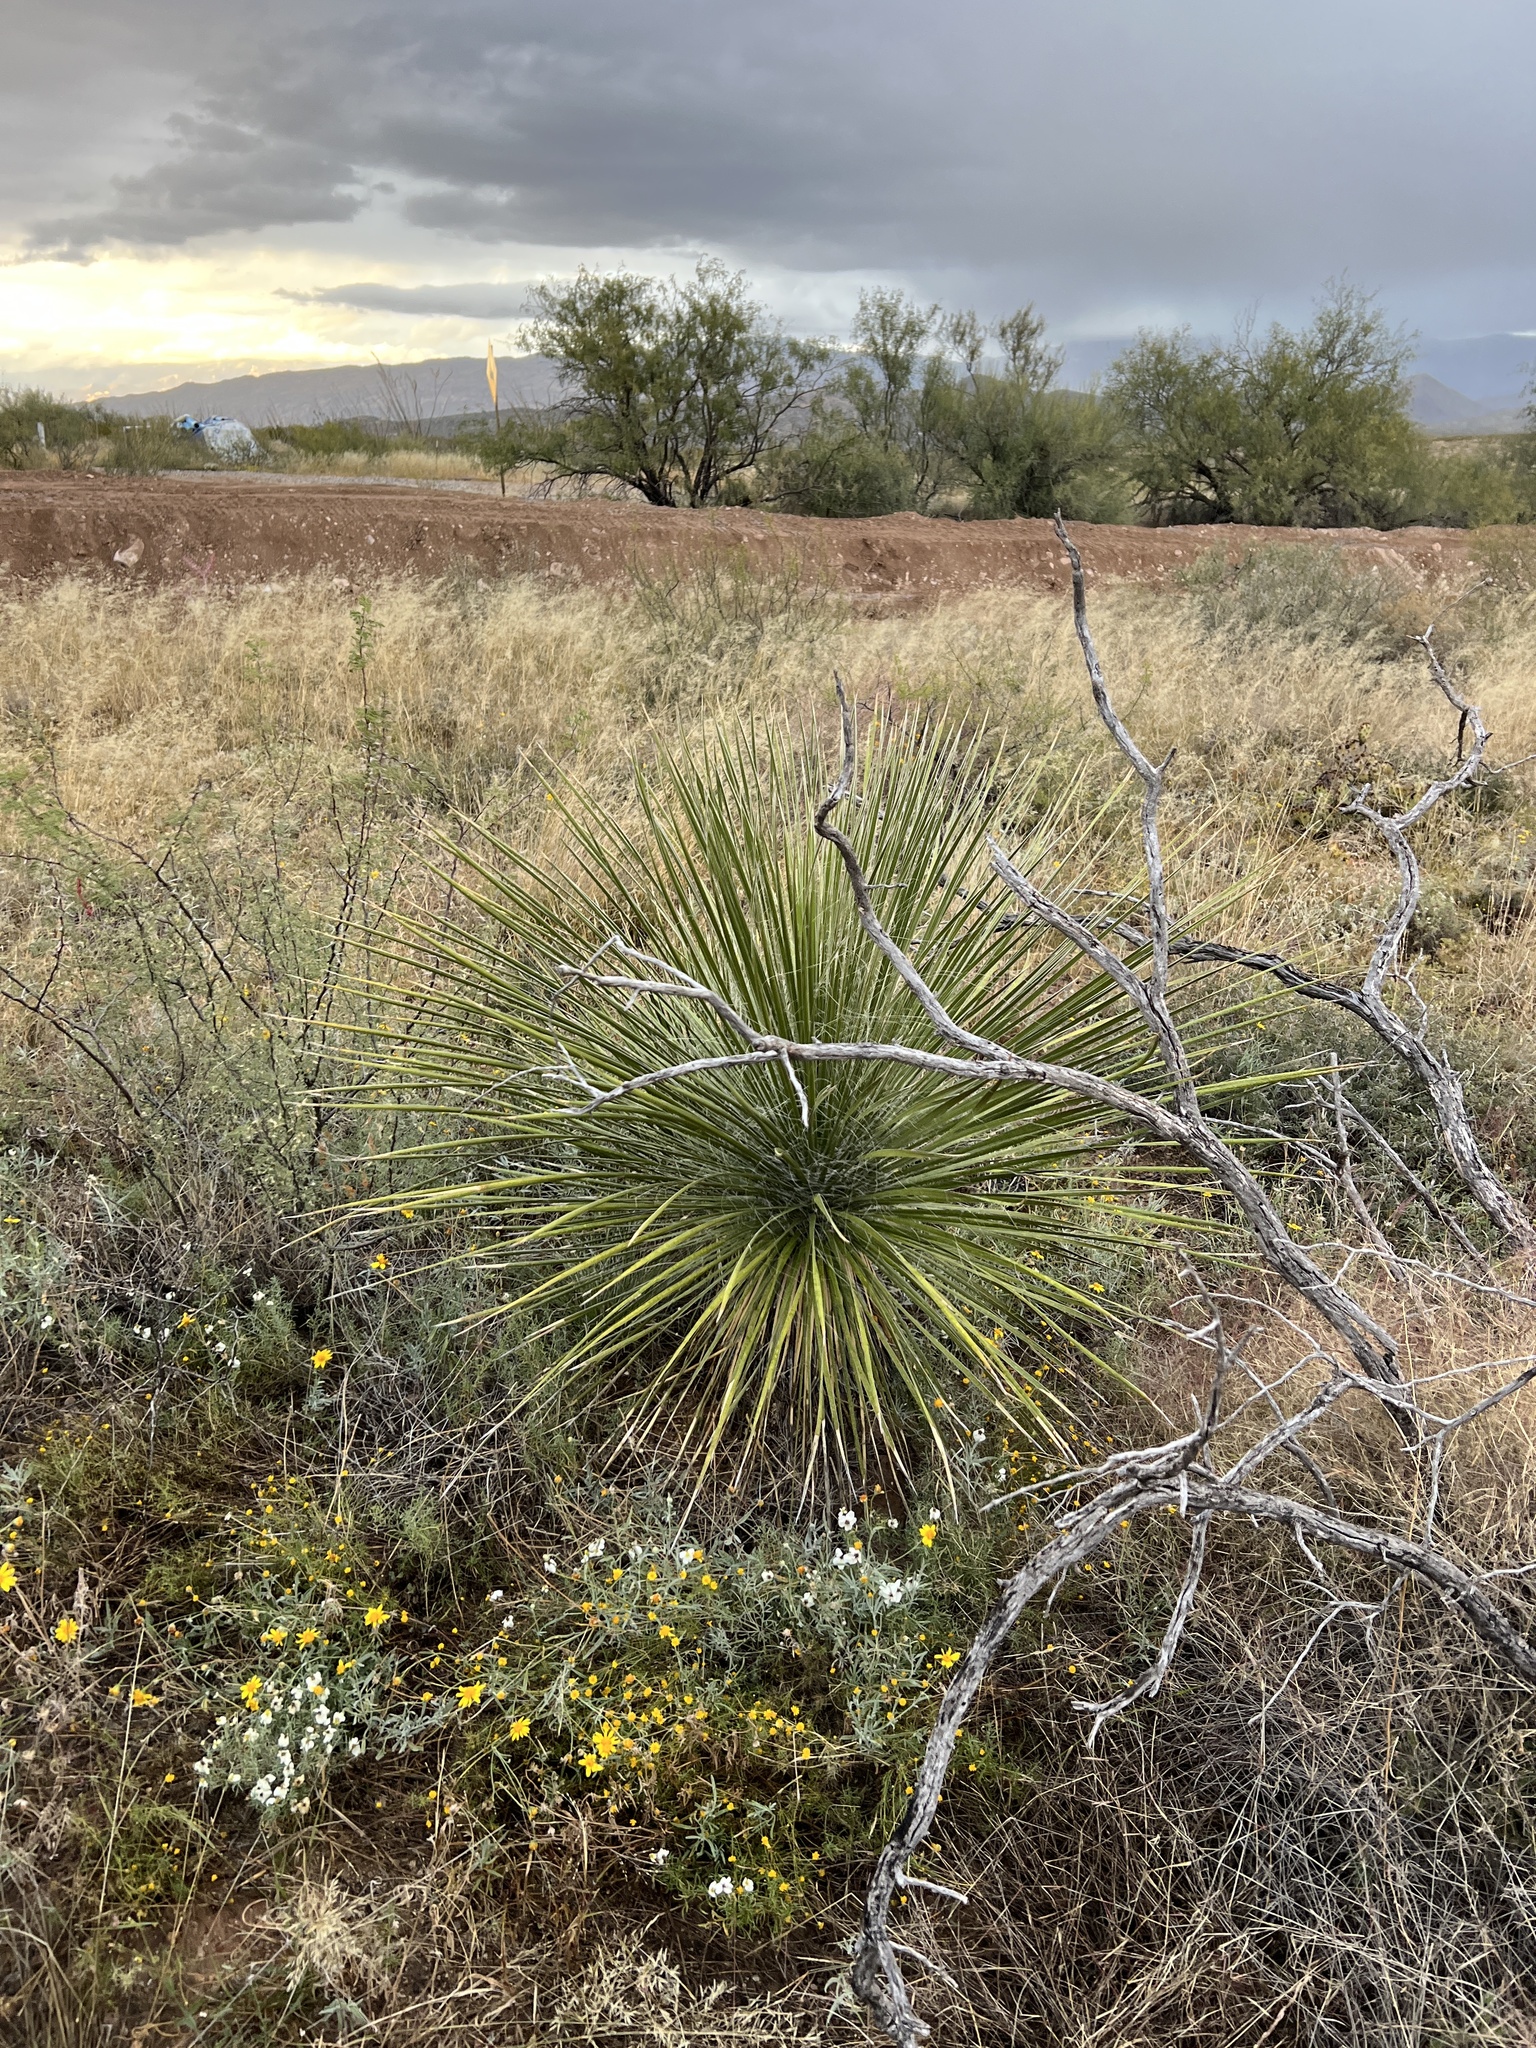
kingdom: Plantae
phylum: Tracheophyta
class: Liliopsida
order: Asparagales
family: Asparagaceae
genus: Yucca
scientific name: Yucca elata
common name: Palmella
